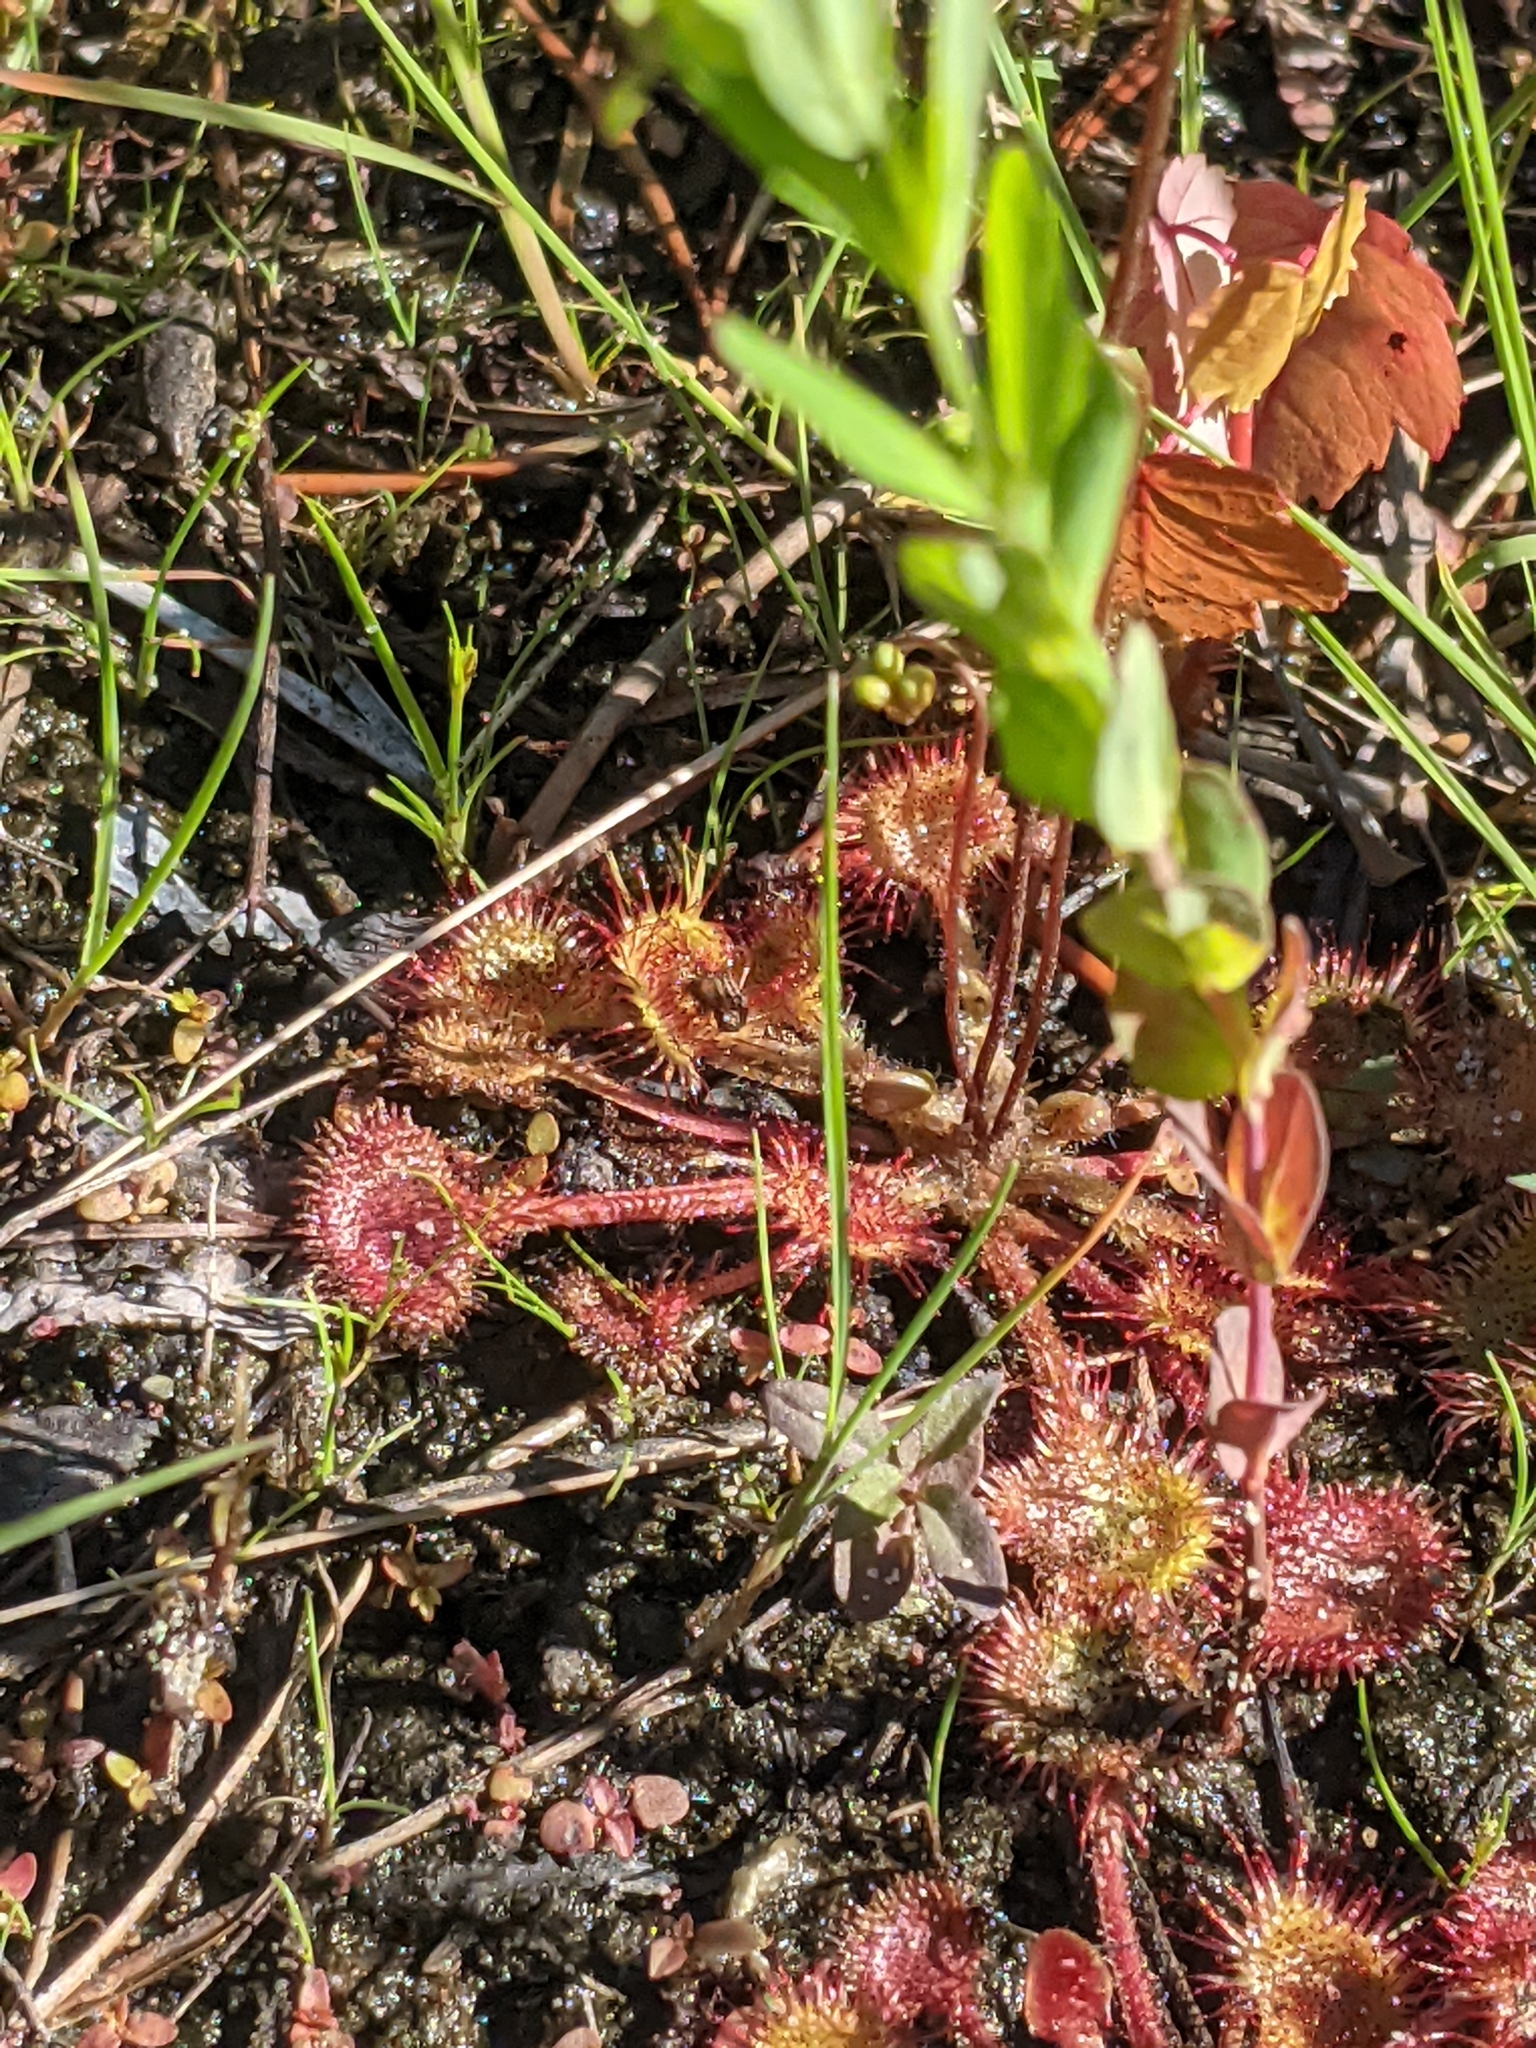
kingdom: Plantae
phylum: Tracheophyta
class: Magnoliopsida
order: Caryophyllales
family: Droseraceae
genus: Drosera
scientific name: Drosera rotundifolia
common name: Round-leaved sundew
